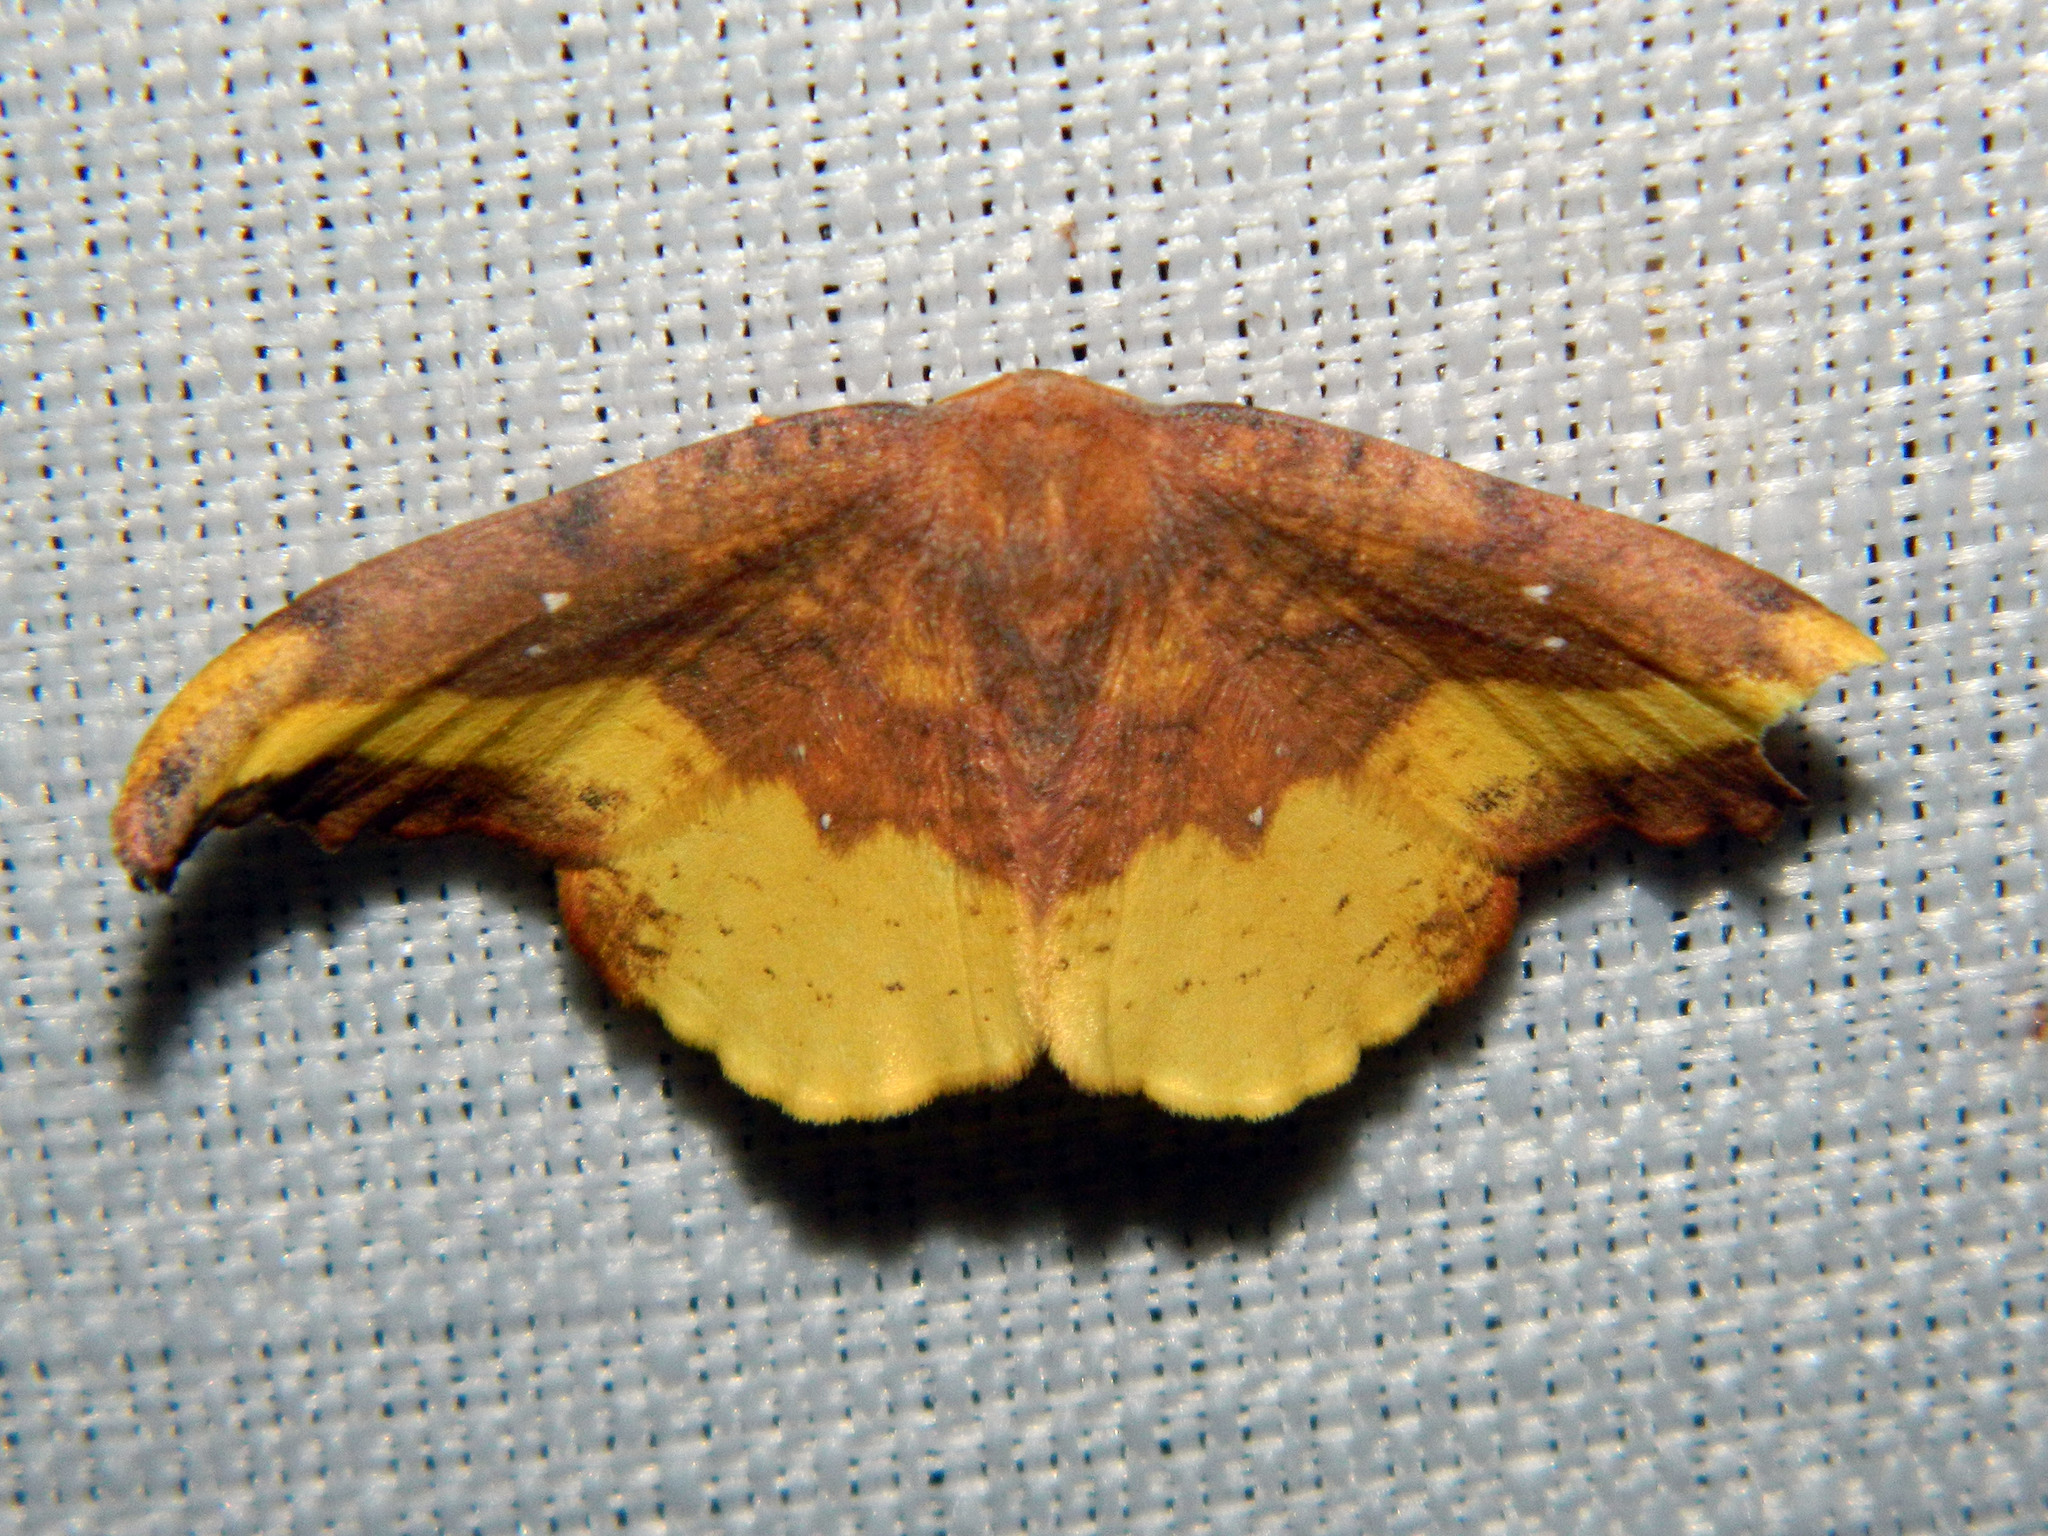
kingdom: Animalia
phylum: Arthropoda
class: Insecta
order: Lepidoptera
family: Drepanidae
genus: Oreta
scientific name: Oreta rosea
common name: Rose hooktip
